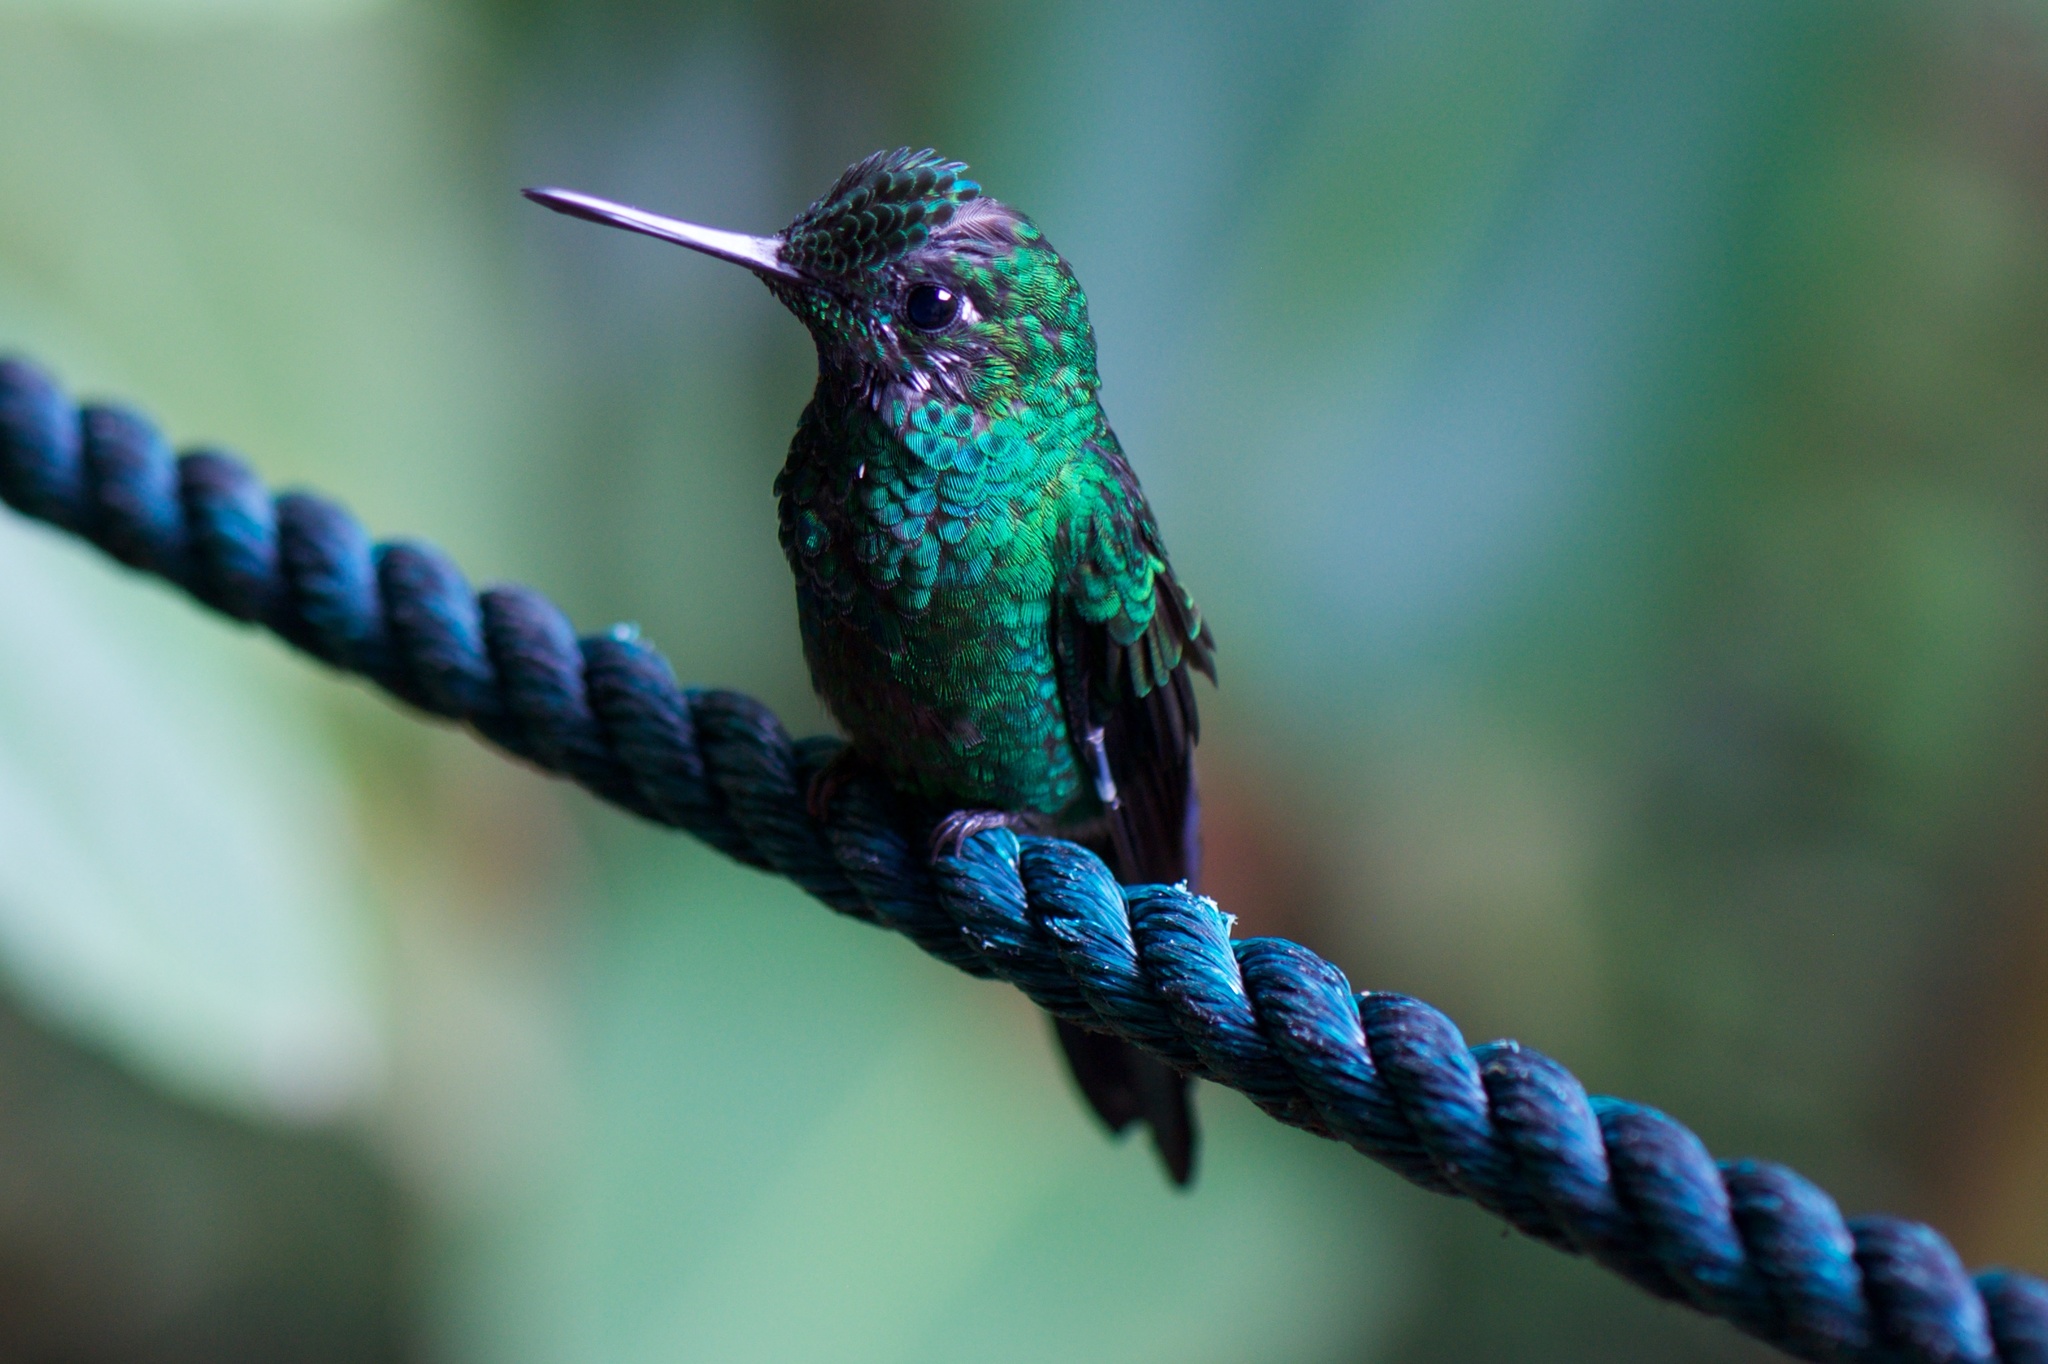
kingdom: Animalia
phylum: Chordata
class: Aves
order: Apodiformes
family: Trochilidae
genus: Heliodoxa
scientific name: Heliodoxa jacula
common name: Green-crowned brilliant
